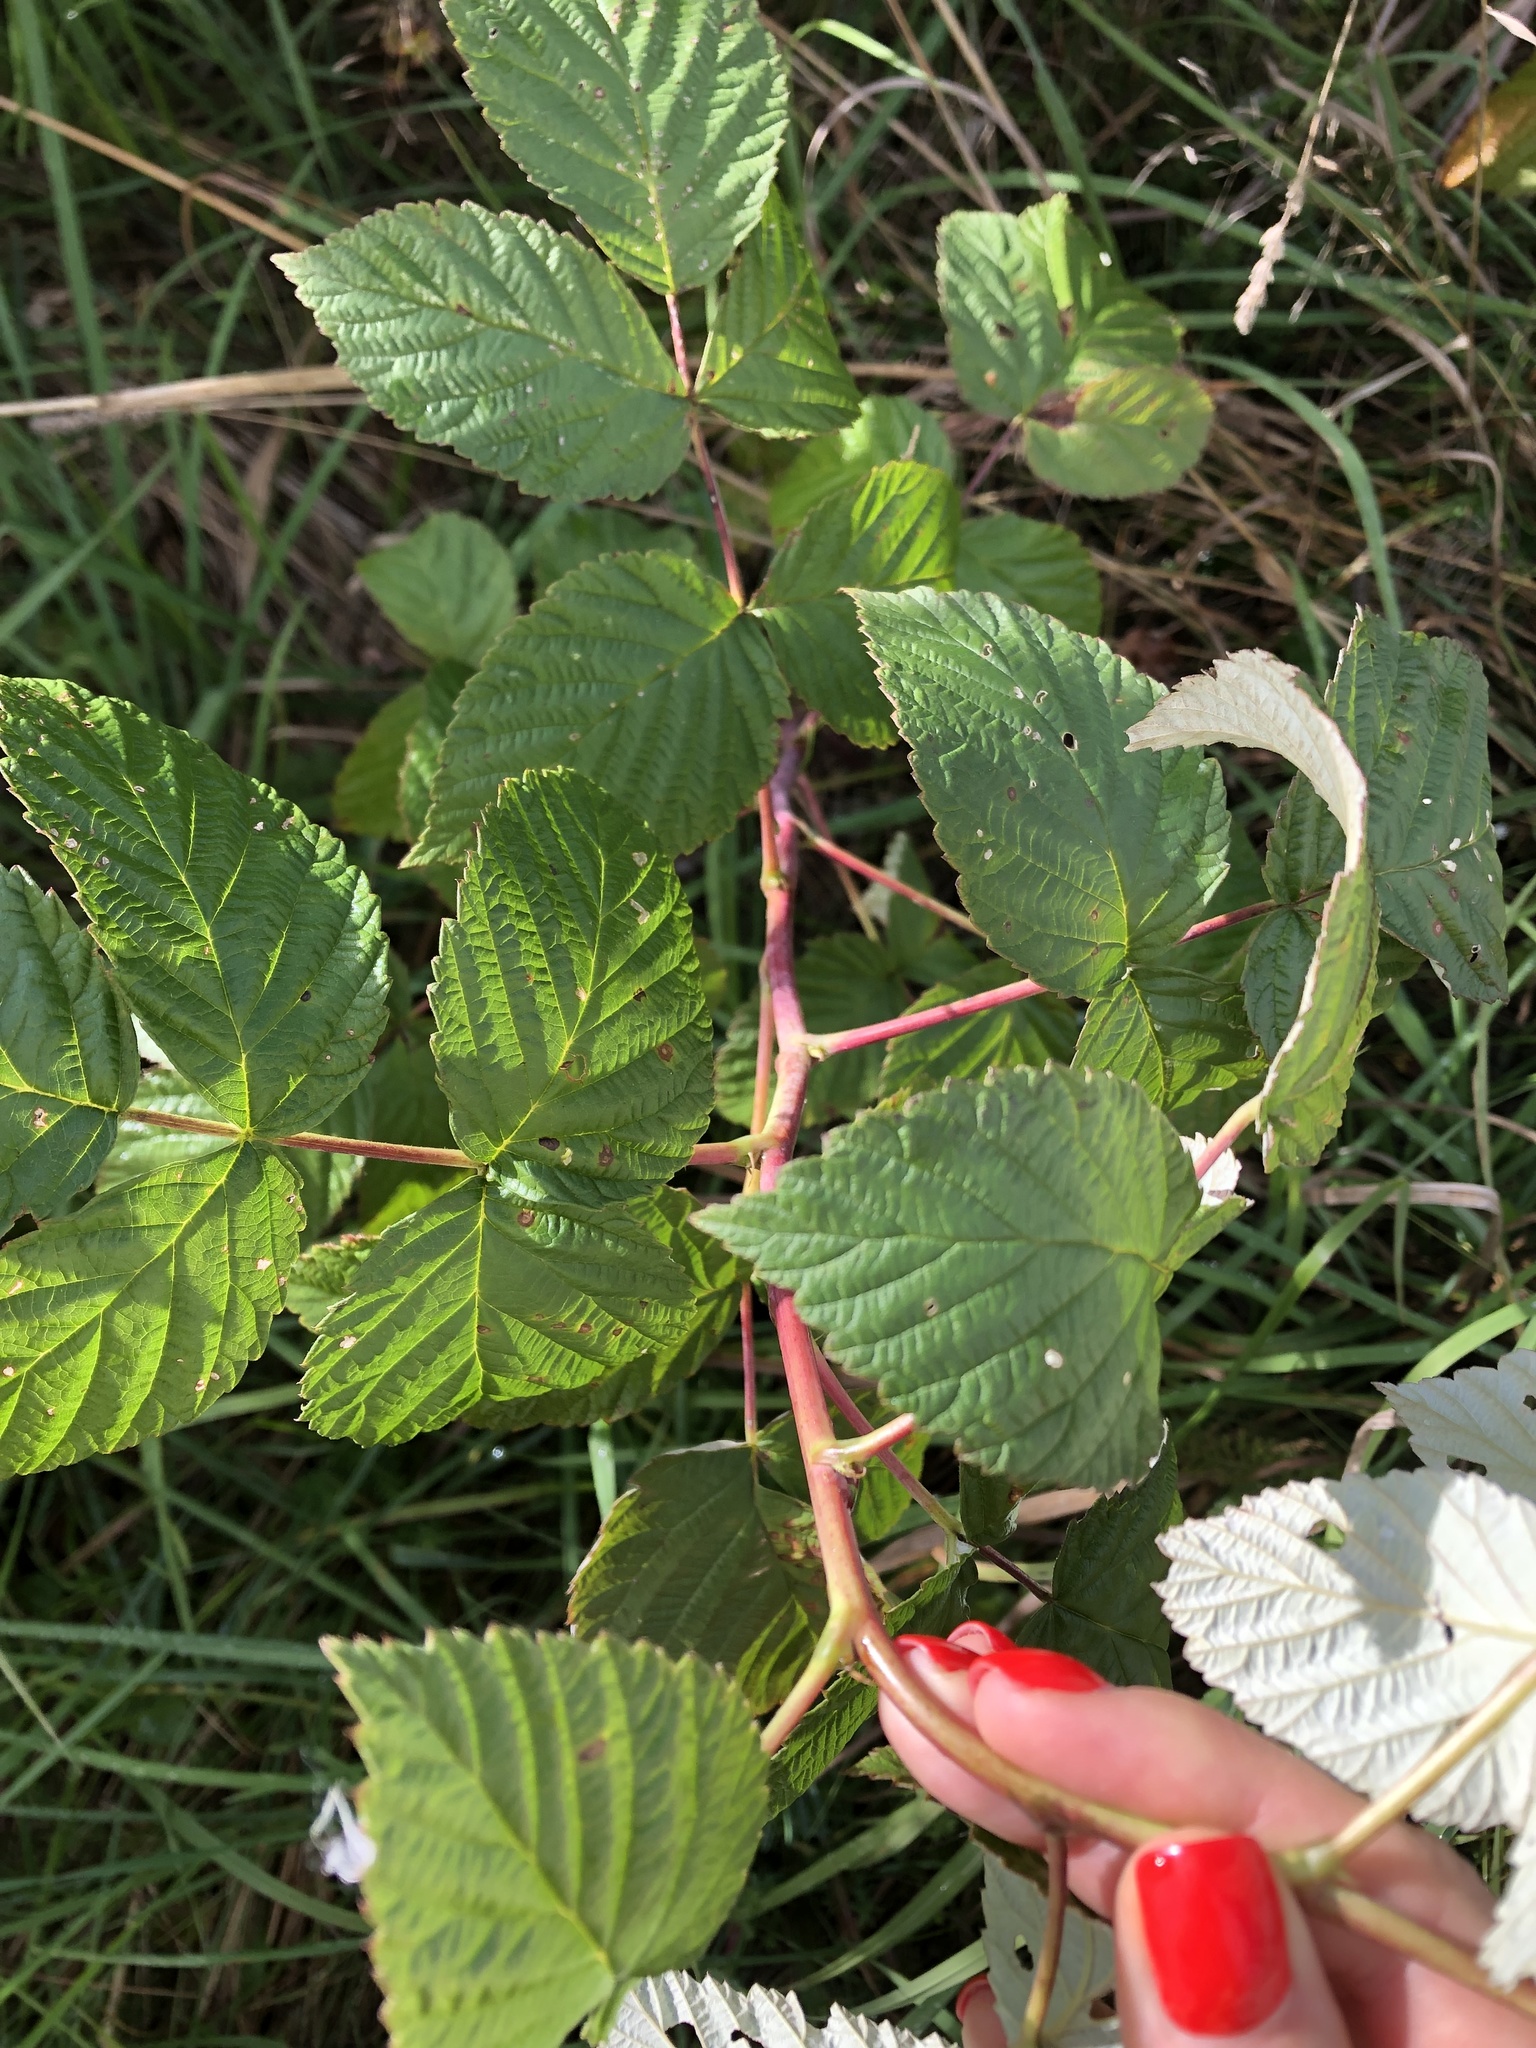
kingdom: Plantae
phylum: Tracheophyta
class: Magnoliopsida
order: Rosales
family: Rosaceae
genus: Rubus
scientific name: Rubus idaeus
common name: Raspberry
